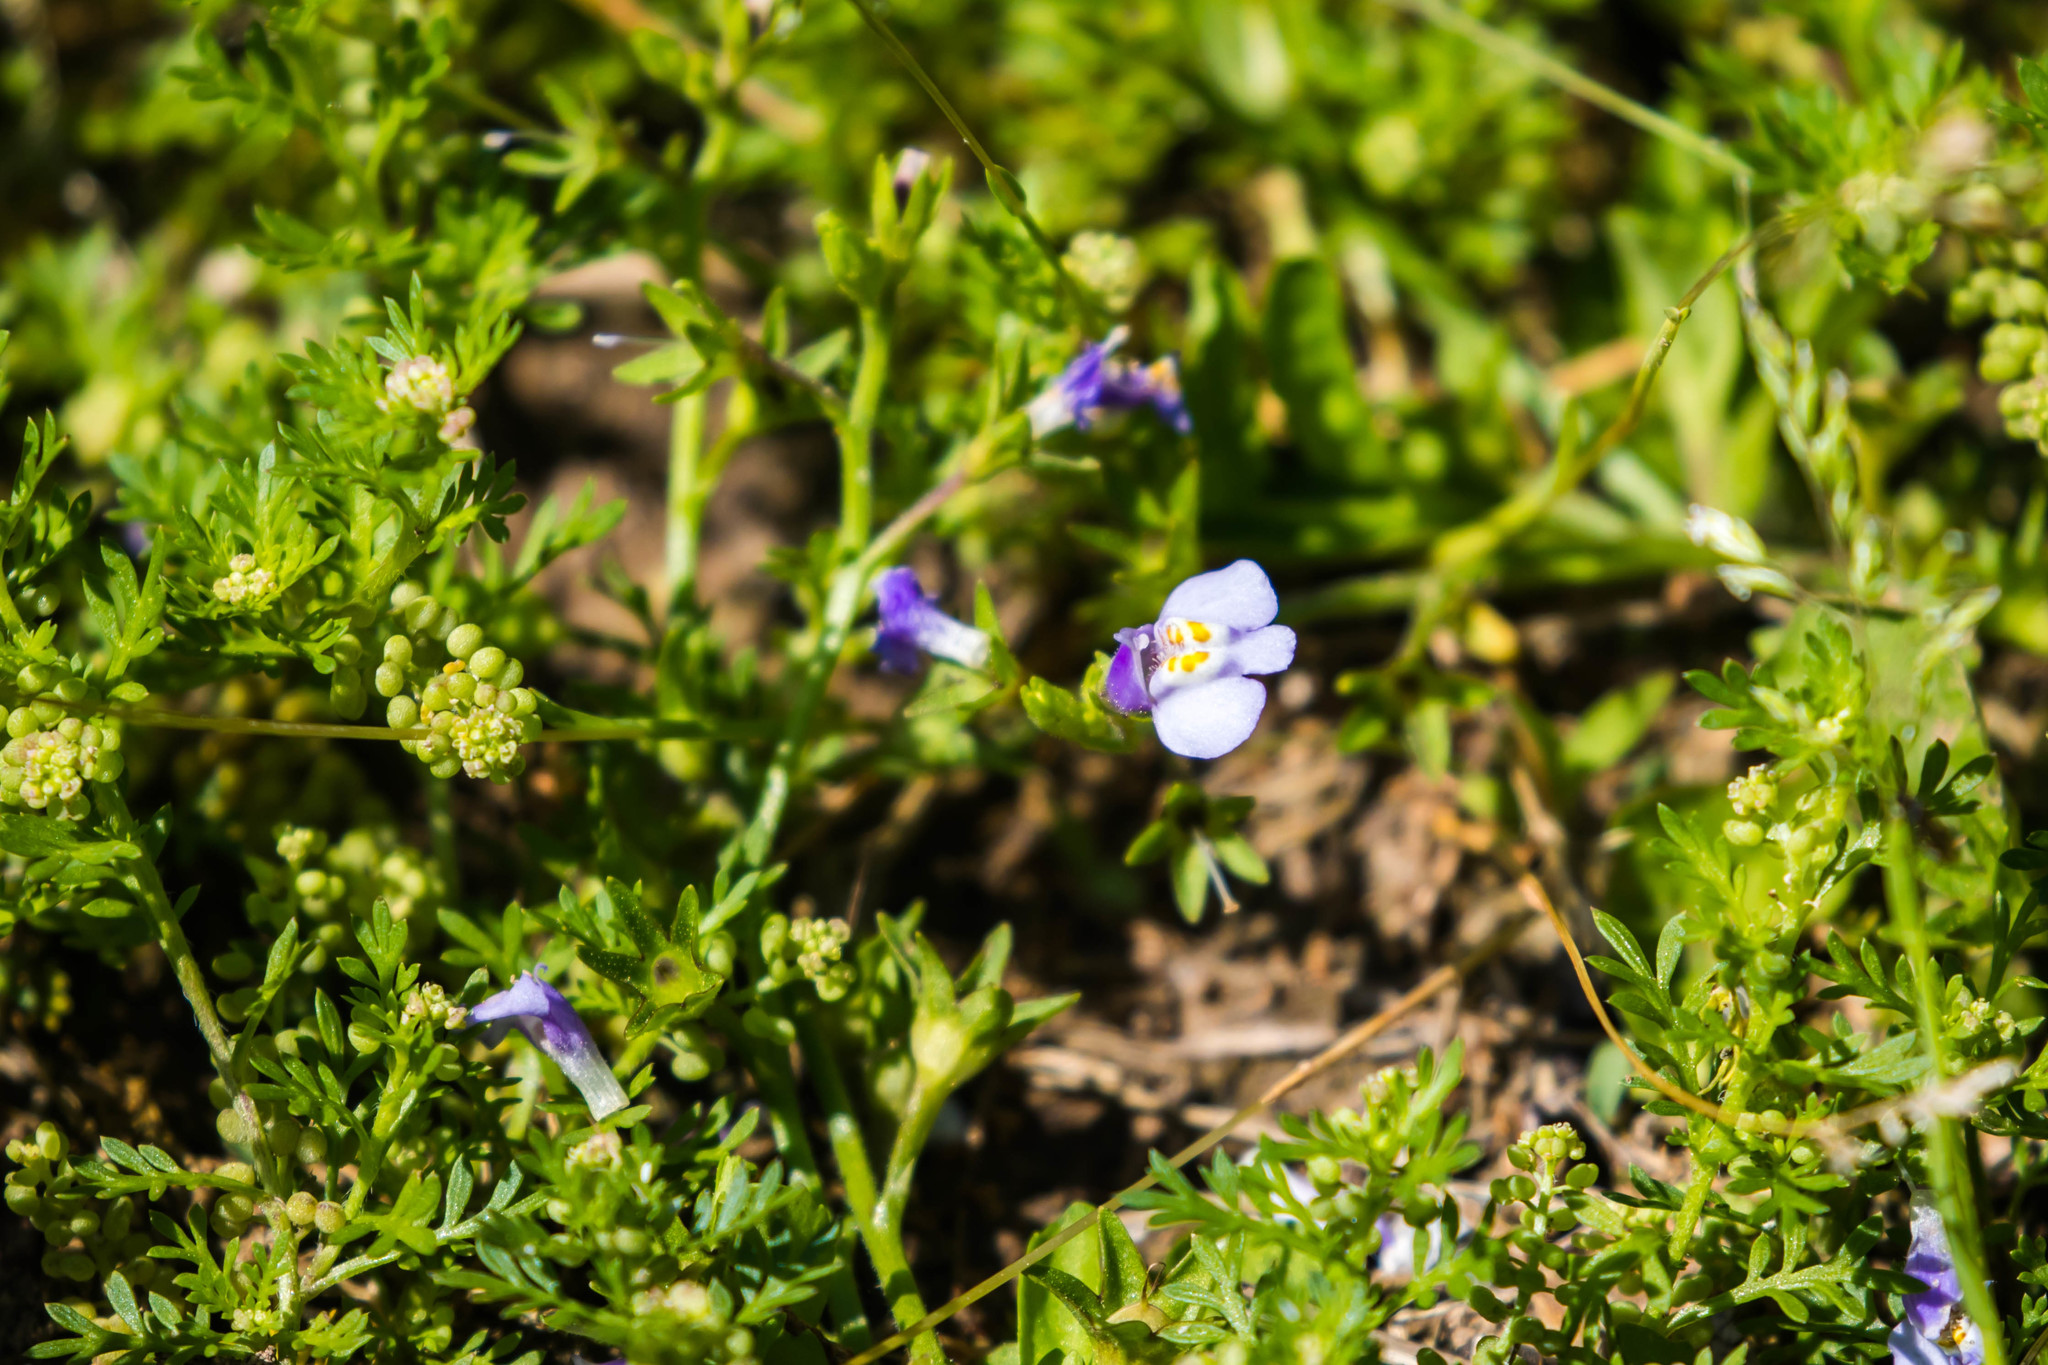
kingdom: Plantae
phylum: Tracheophyta
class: Magnoliopsida
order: Lamiales
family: Mazaceae
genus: Mazus
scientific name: Mazus pumilus
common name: Japanese mazus
